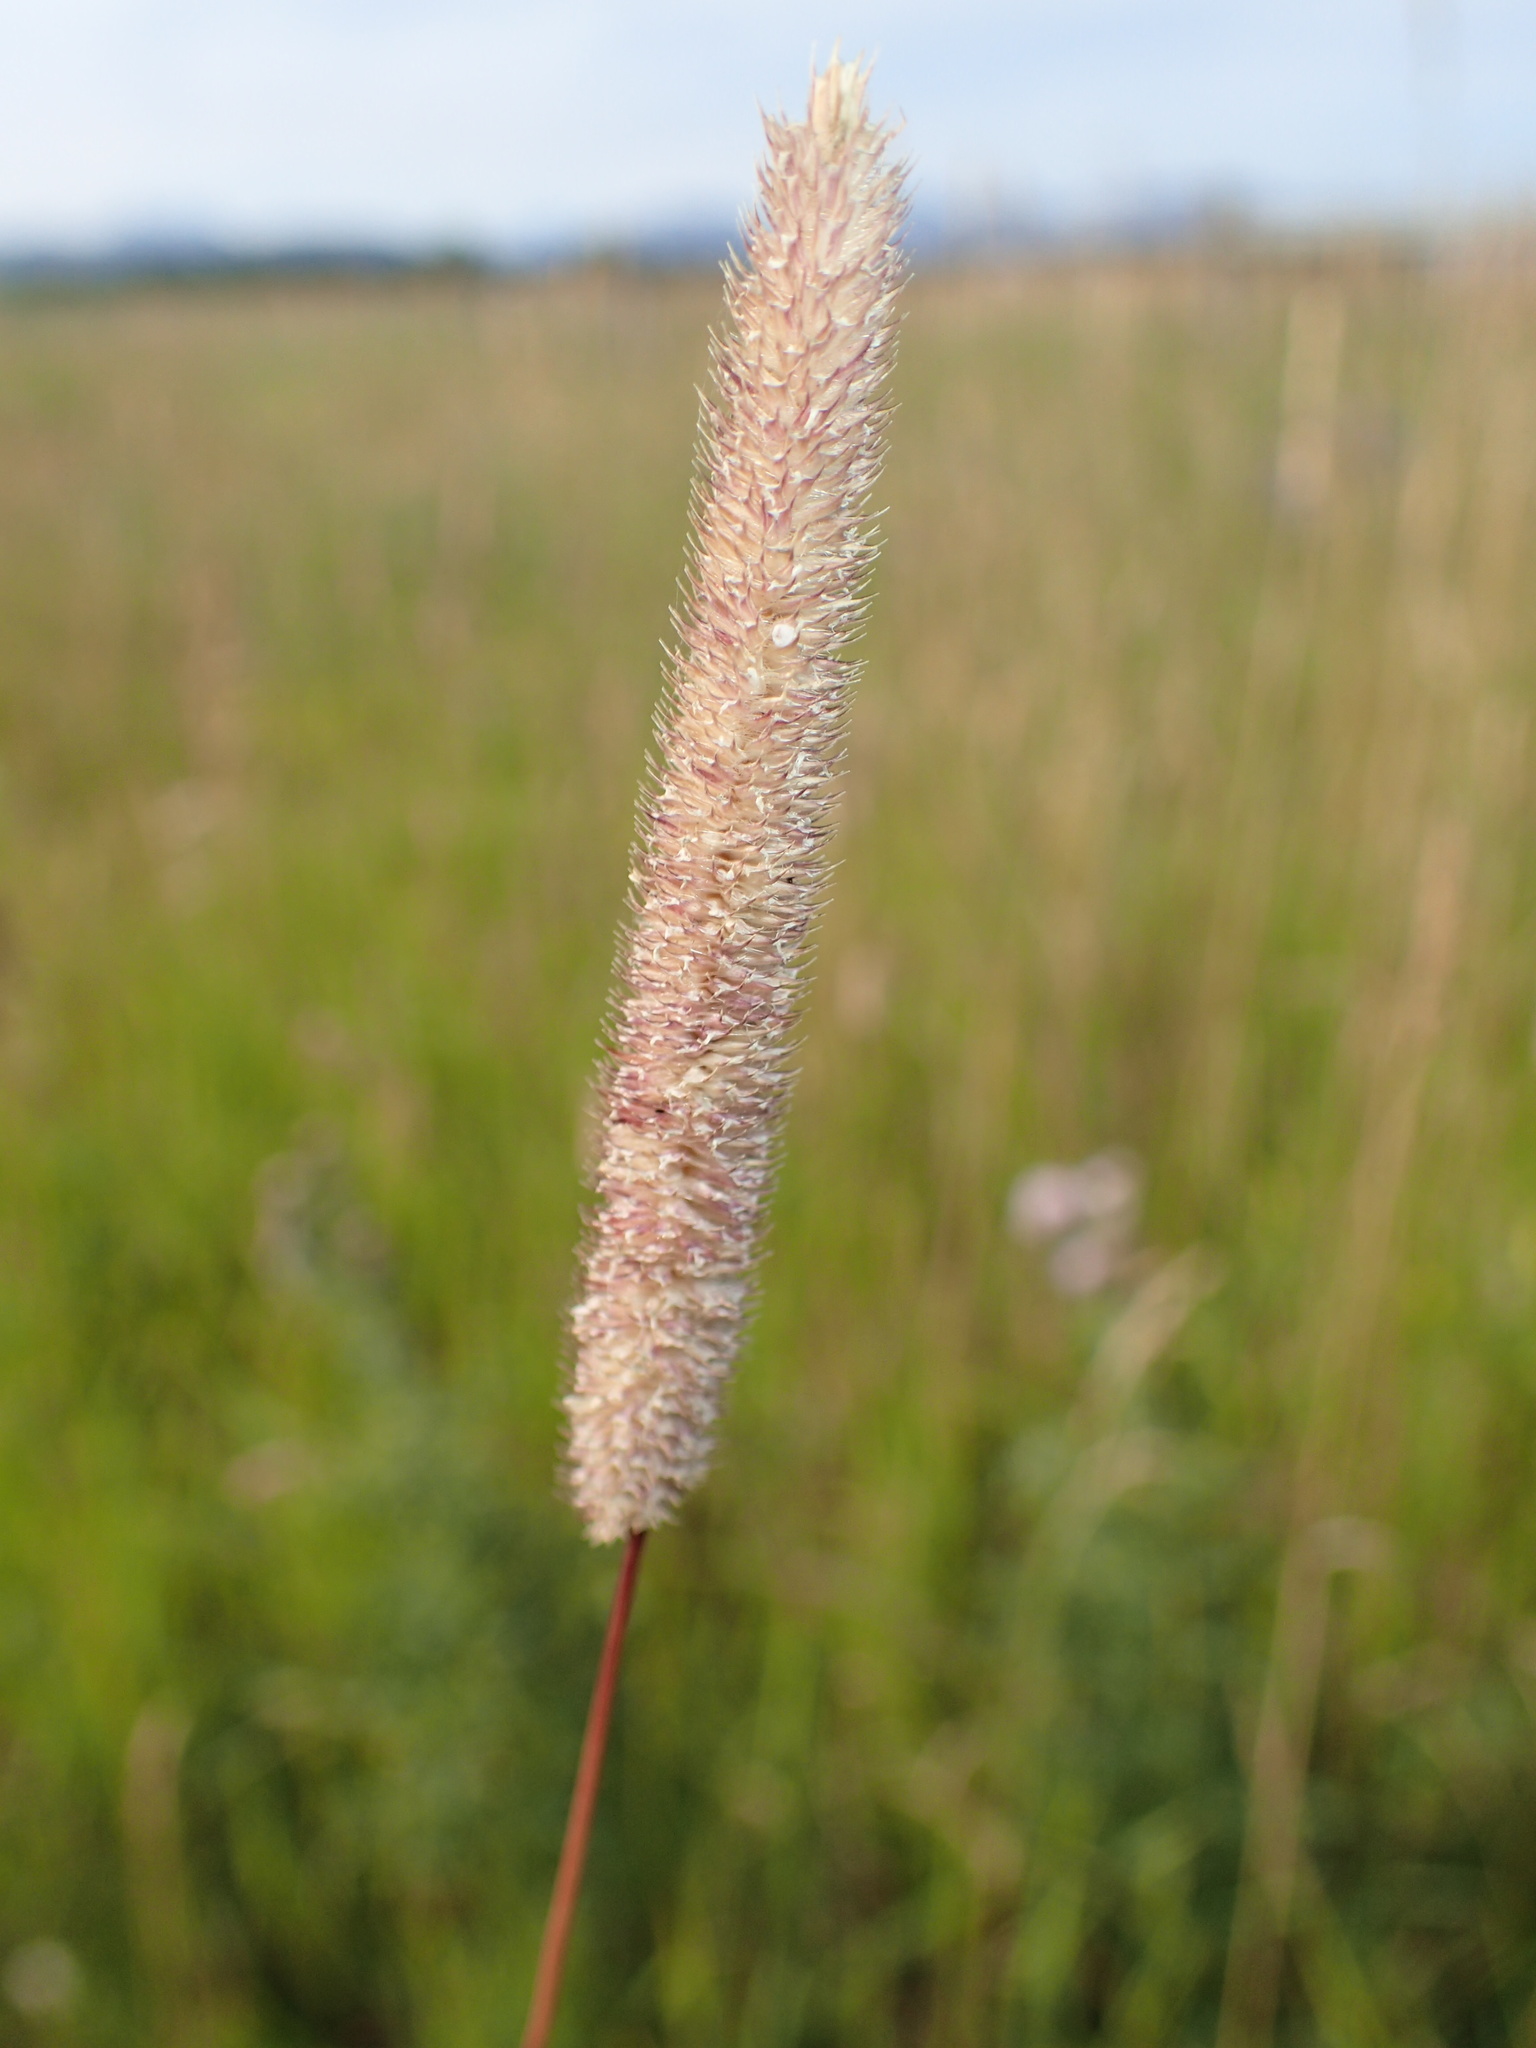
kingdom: Plantae
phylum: Tracheophyta
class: Liliopsida
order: Poales
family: Poaceae
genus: Phleum
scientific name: Phleum pratense
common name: Timothy grass
